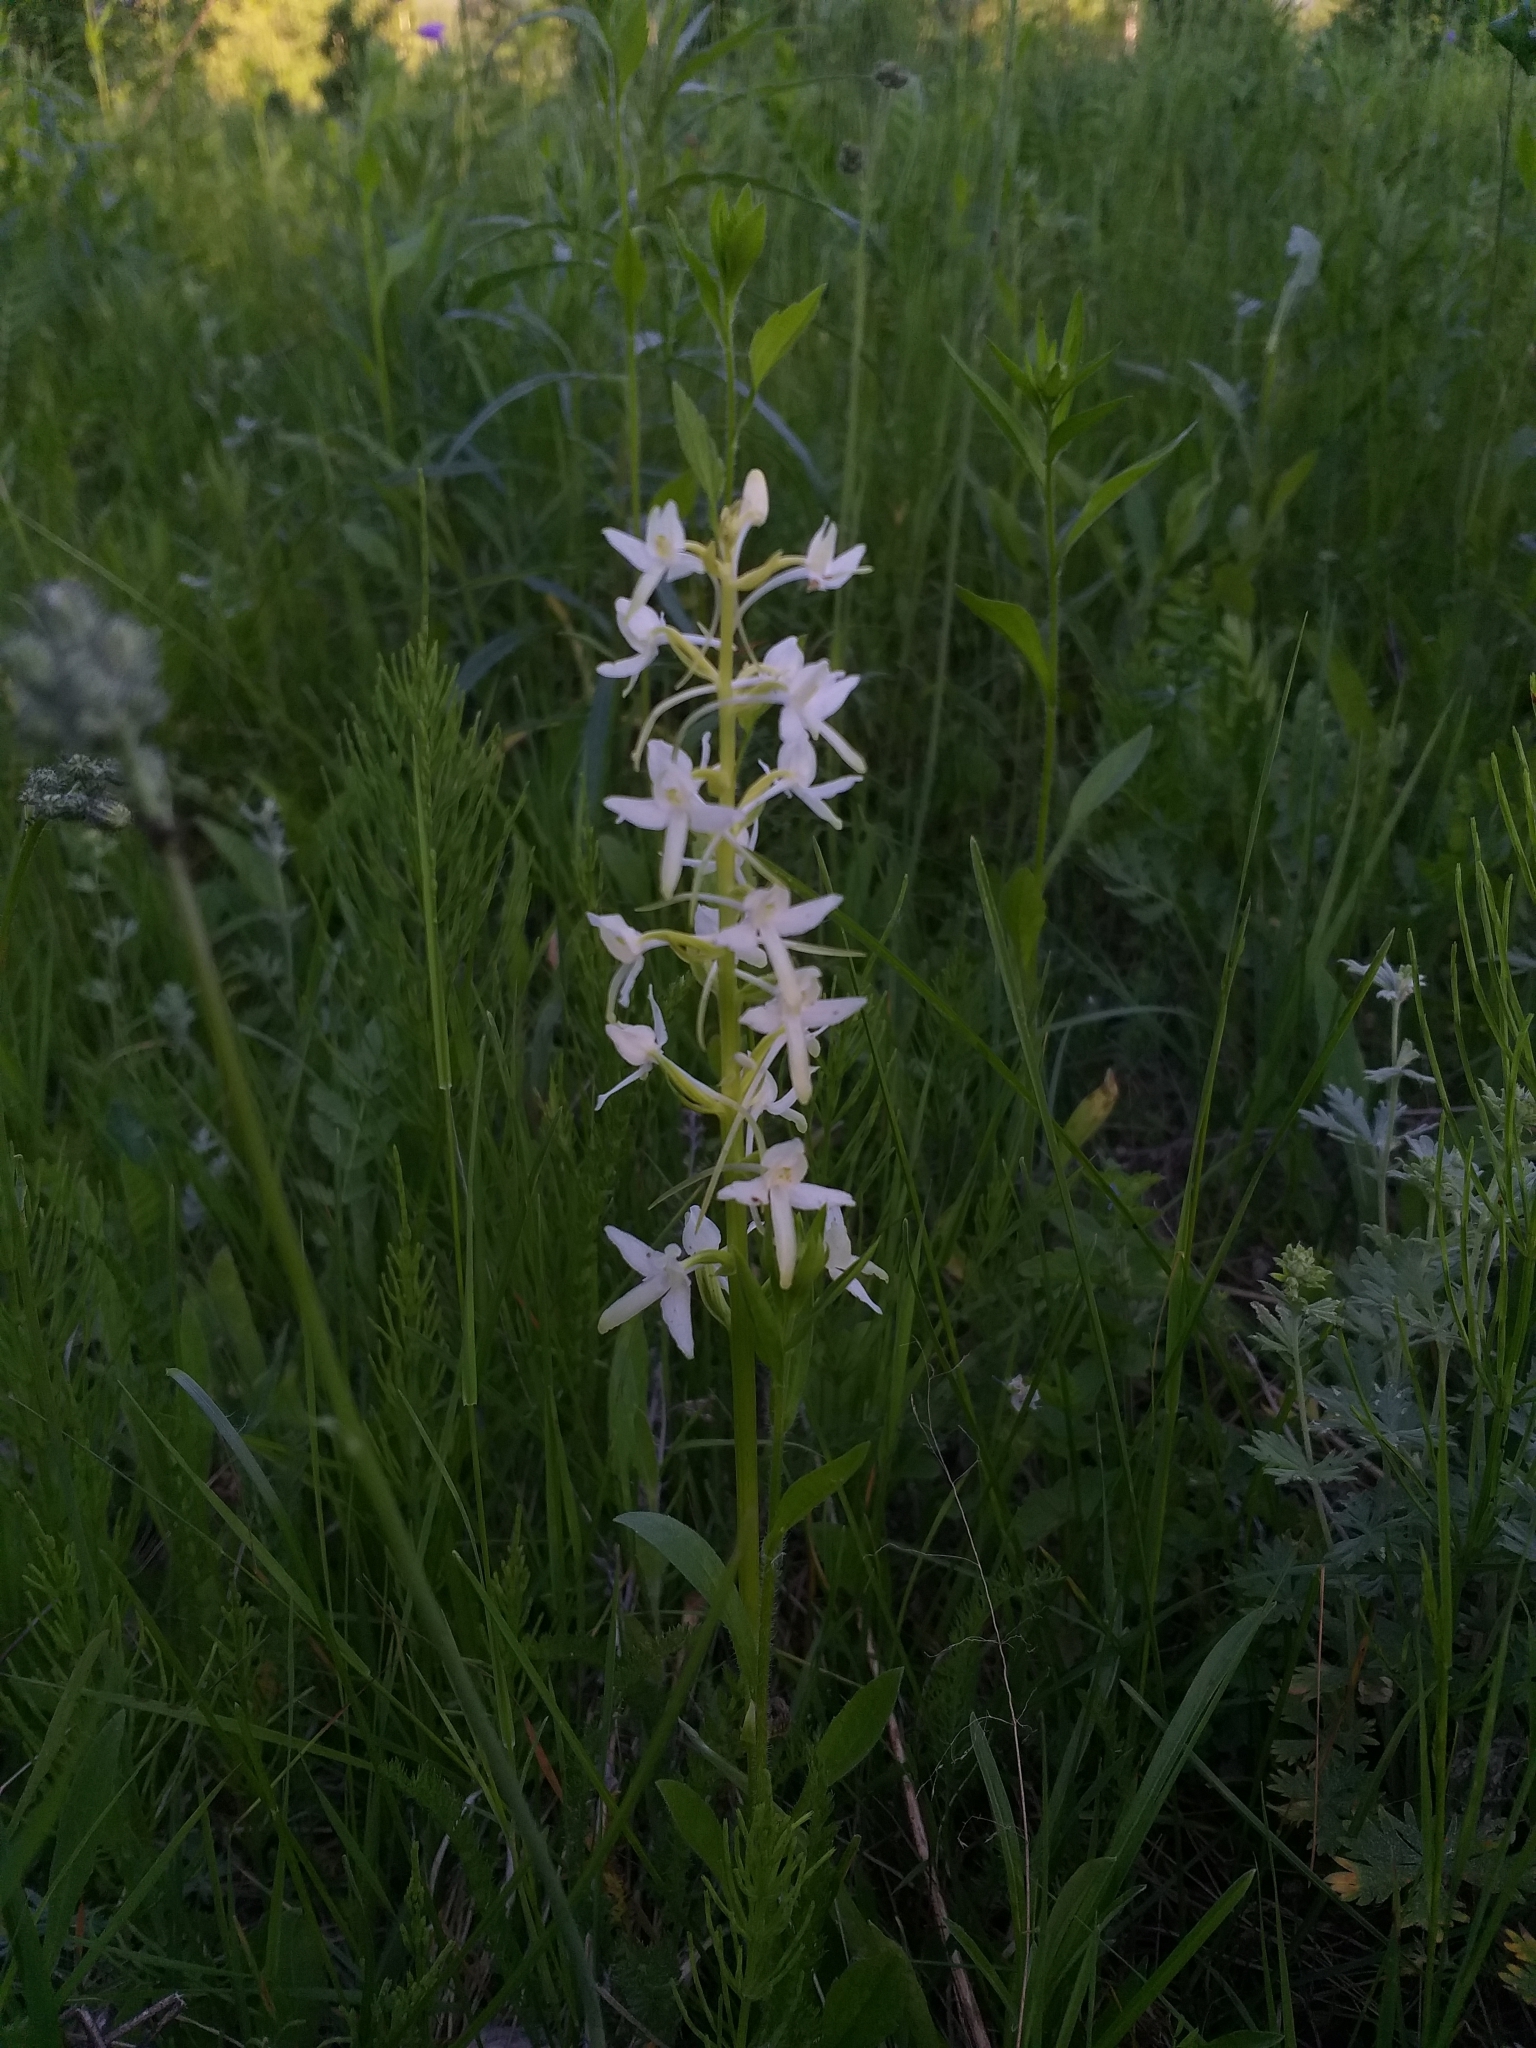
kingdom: Plantae
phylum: Tracheophyta
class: Liliopsida
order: Asparagales
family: Orchidaceae
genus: Platanthera
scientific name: Platanthera bifolia
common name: Lesser butterfly-orchid
